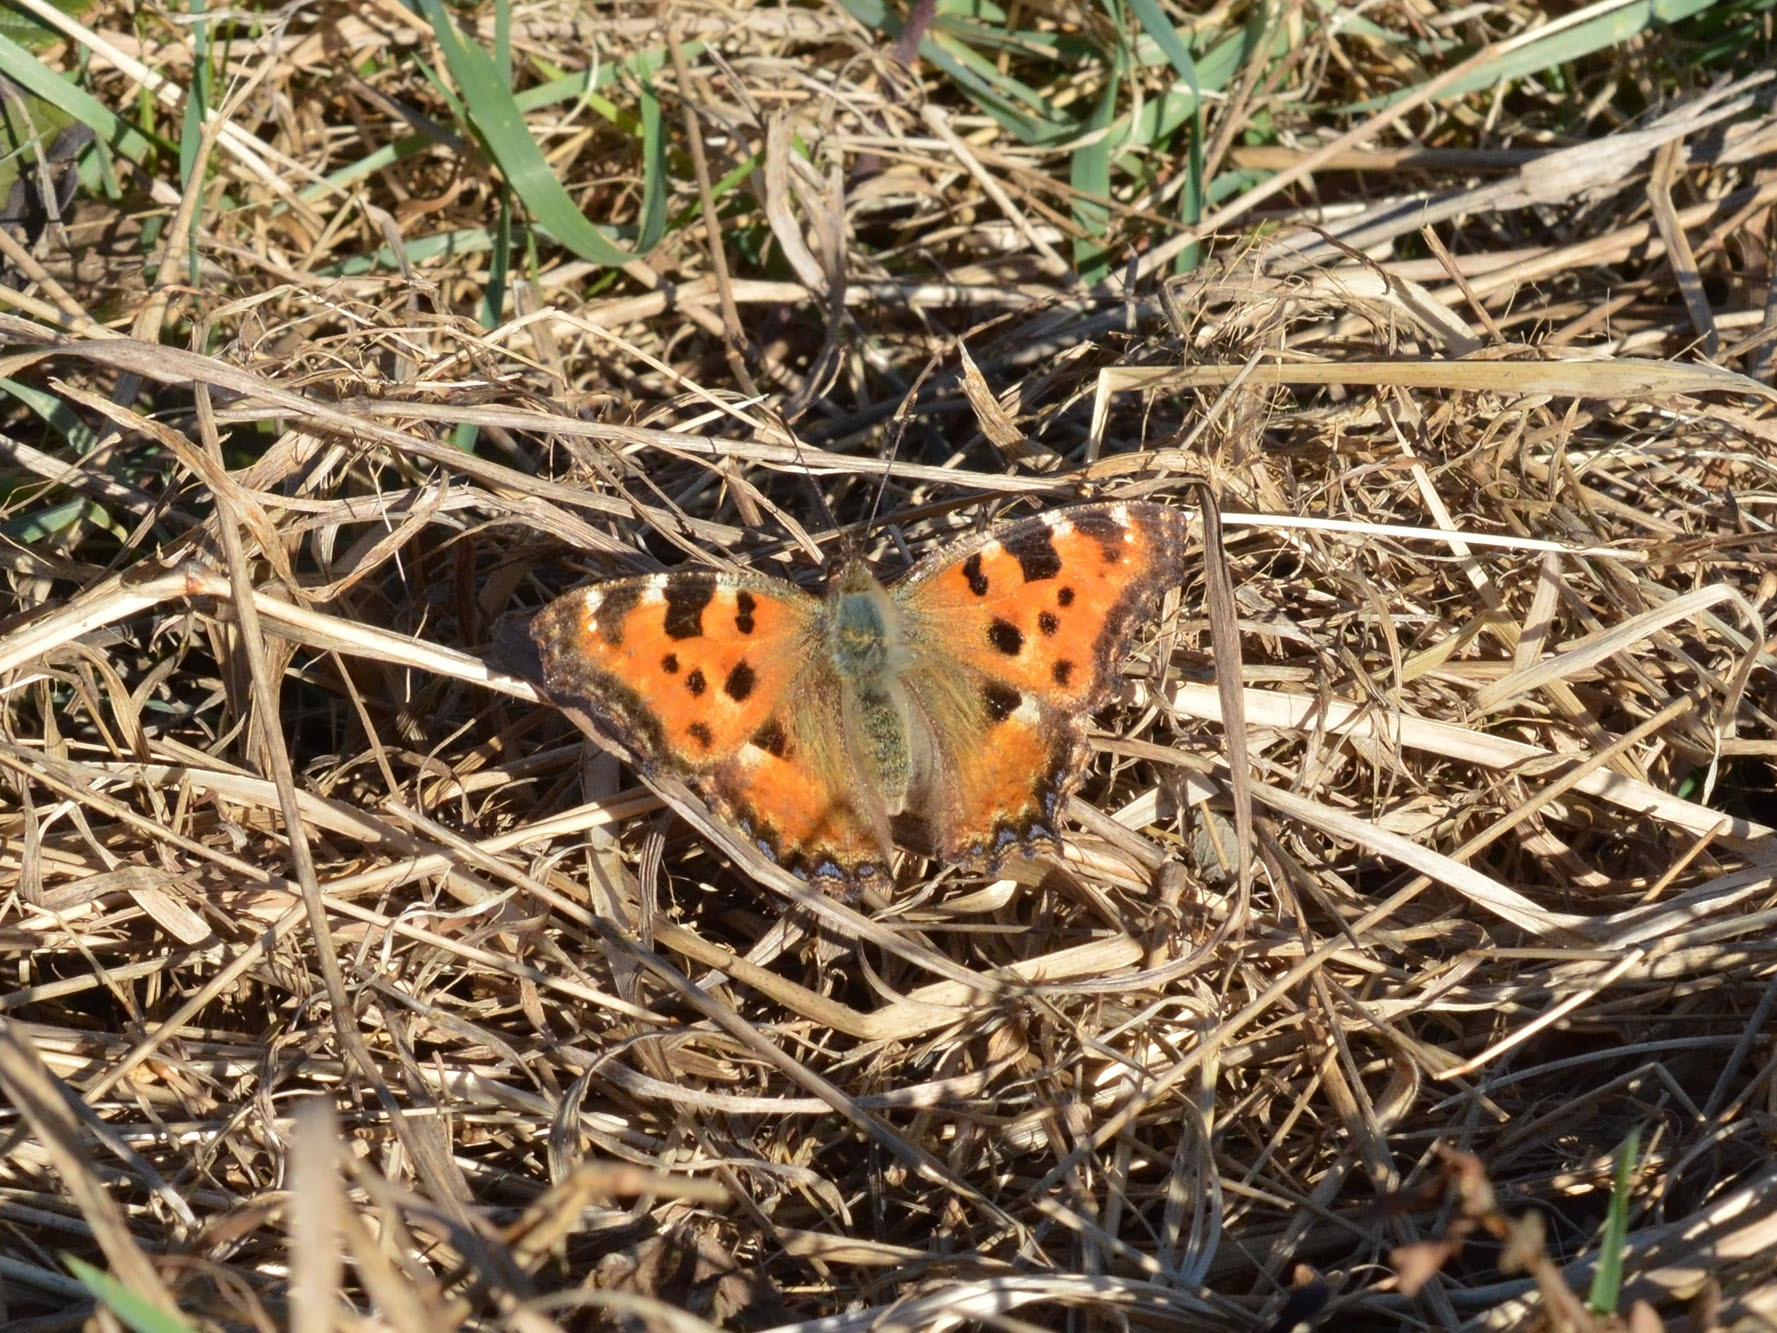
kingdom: Animalia
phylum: Arthropoda
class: Insecta
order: Lepidoptera
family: Nymphalidae
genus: Nymphalis
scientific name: Nymphalis polychloros
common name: Large tortoiseshell
